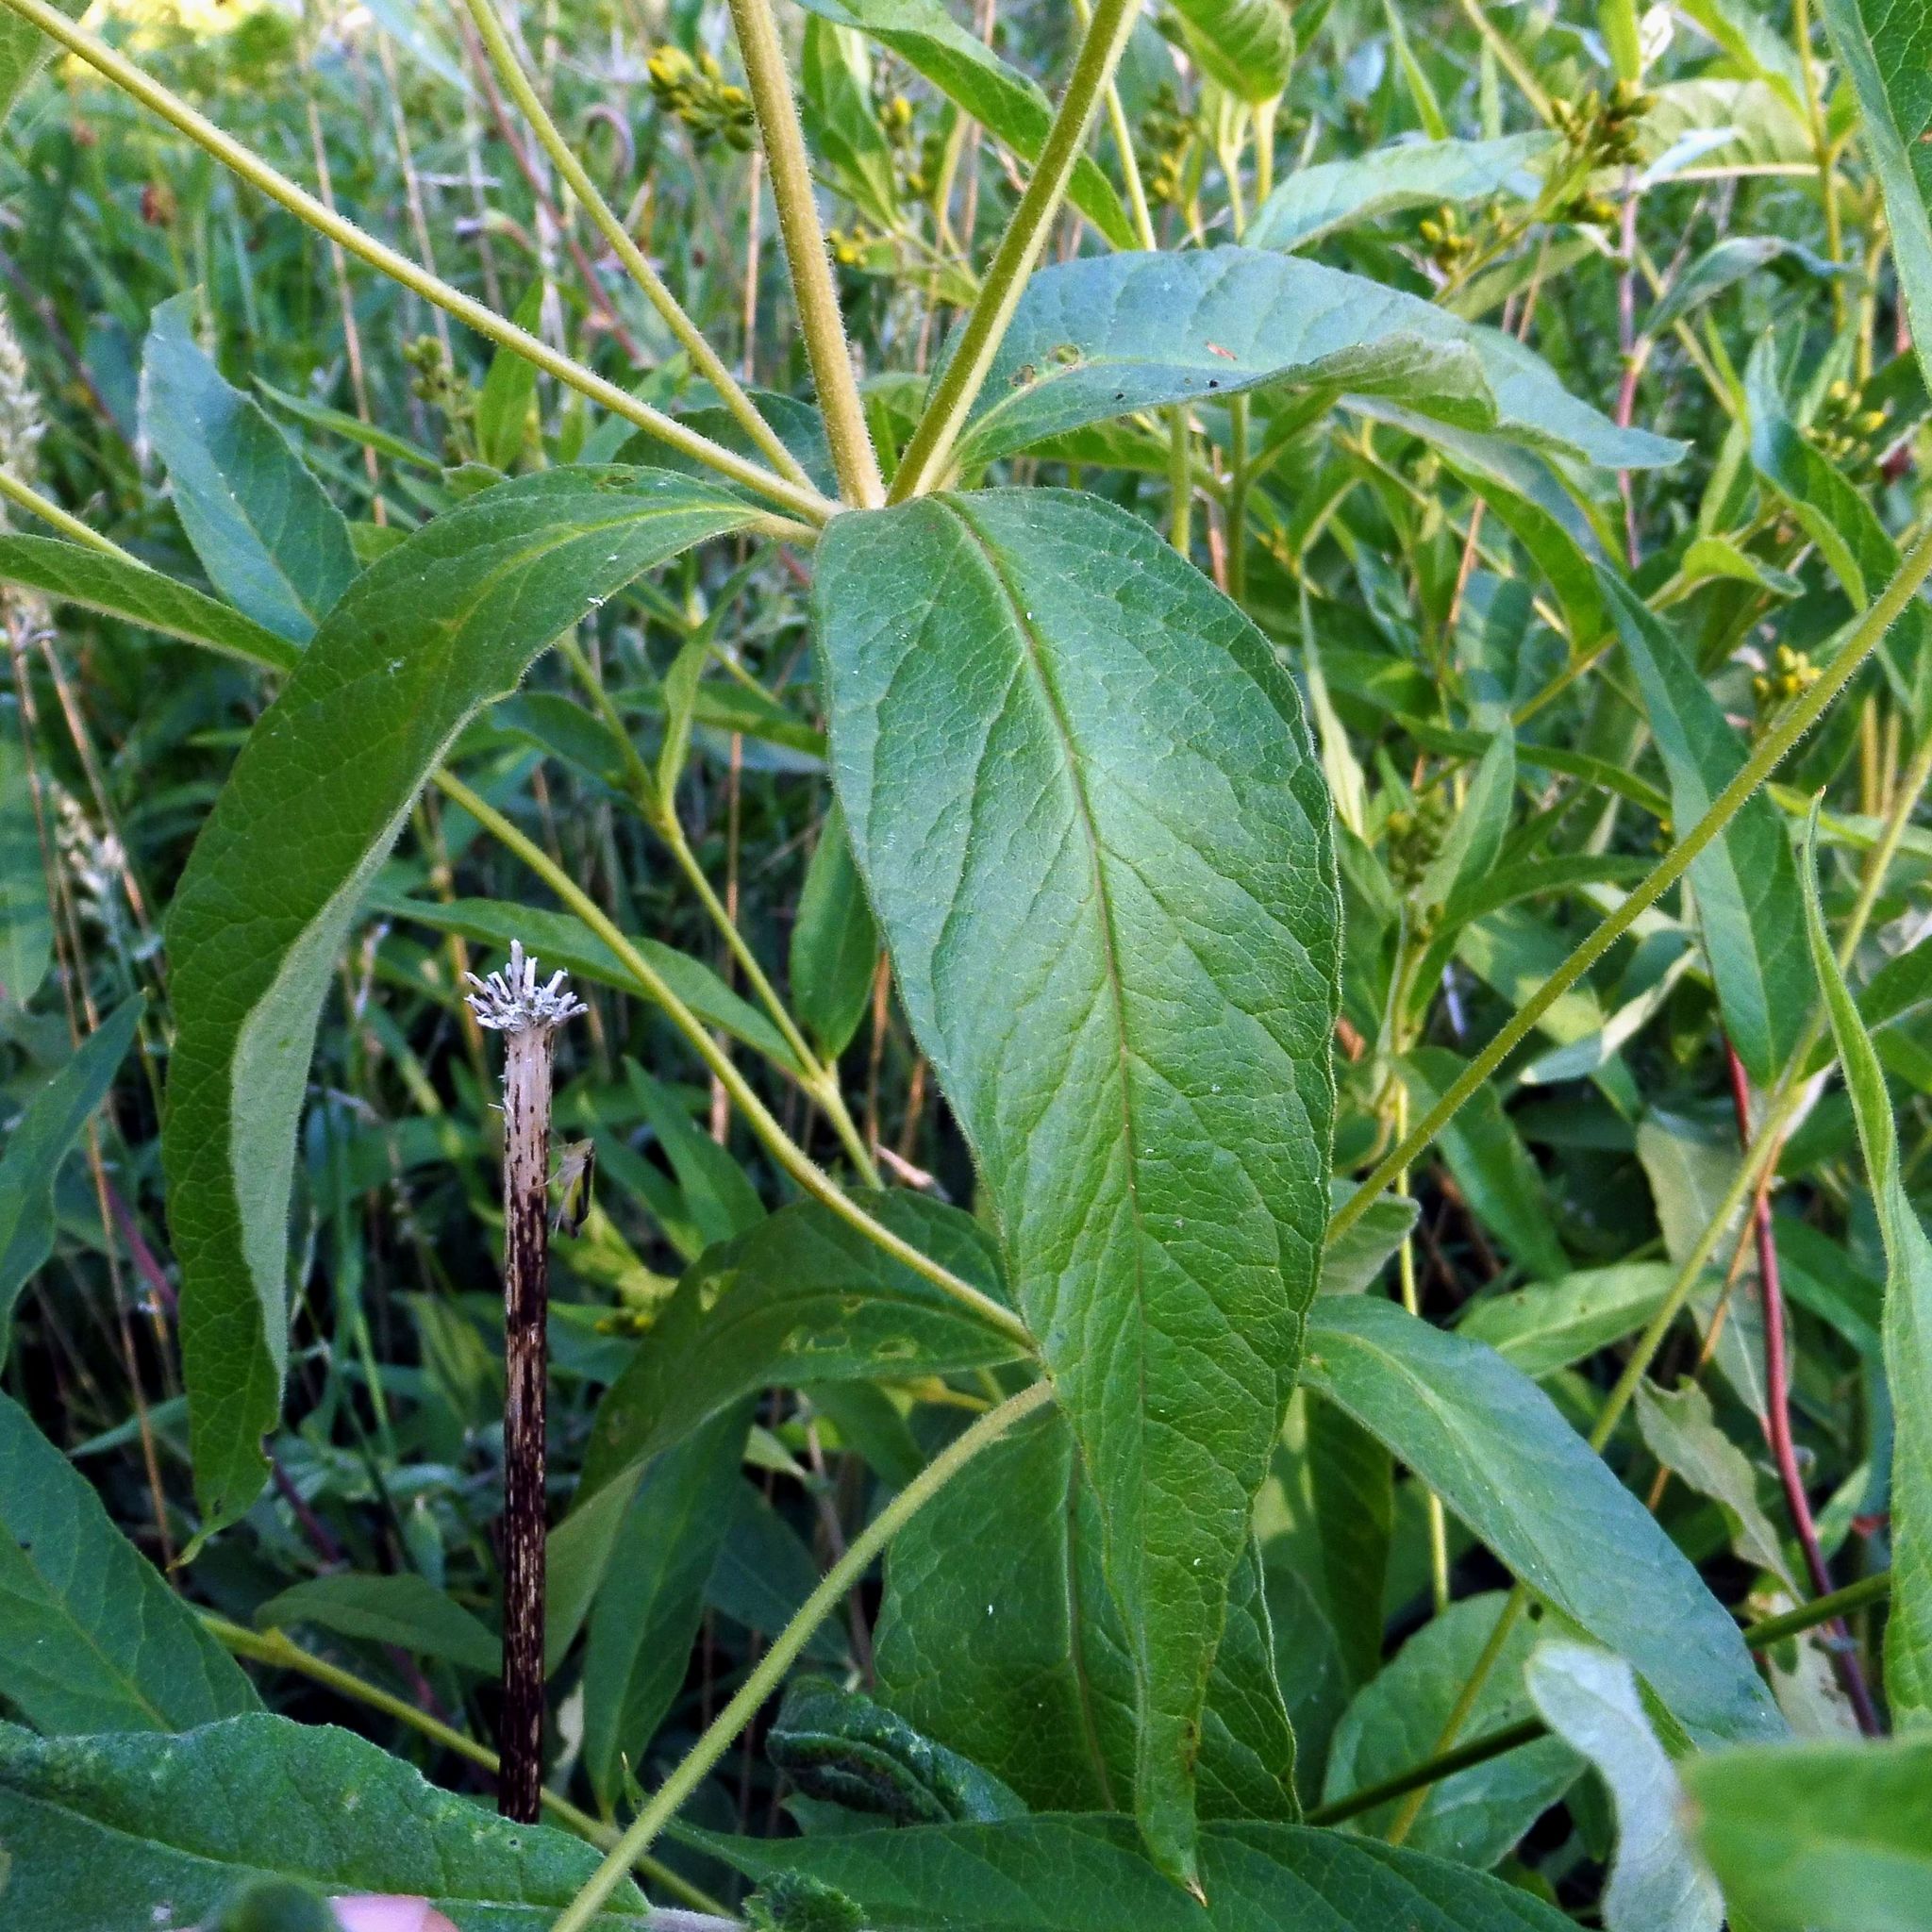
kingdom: Plantae
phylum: Tracheophyta
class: Magnoliopsida
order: Ericales
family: Primulaceae
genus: Lysimachia
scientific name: Lysimachia vulgaris
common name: Yellow loosestrife
